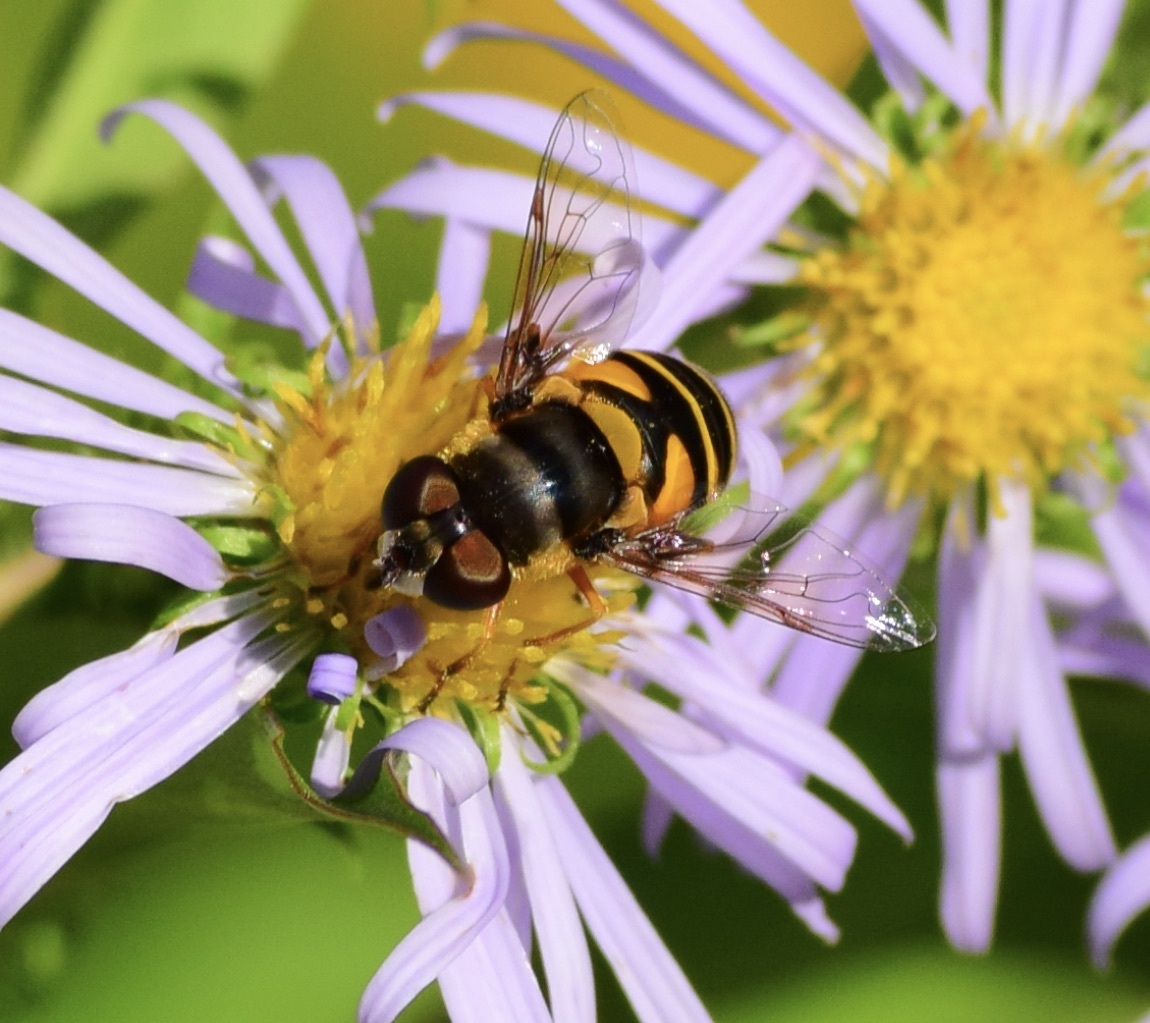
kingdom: Animalia
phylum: Arthropoda
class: Insecta
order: Diptera
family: Syrphidae
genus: Eristalis
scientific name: Eristalis transversa
